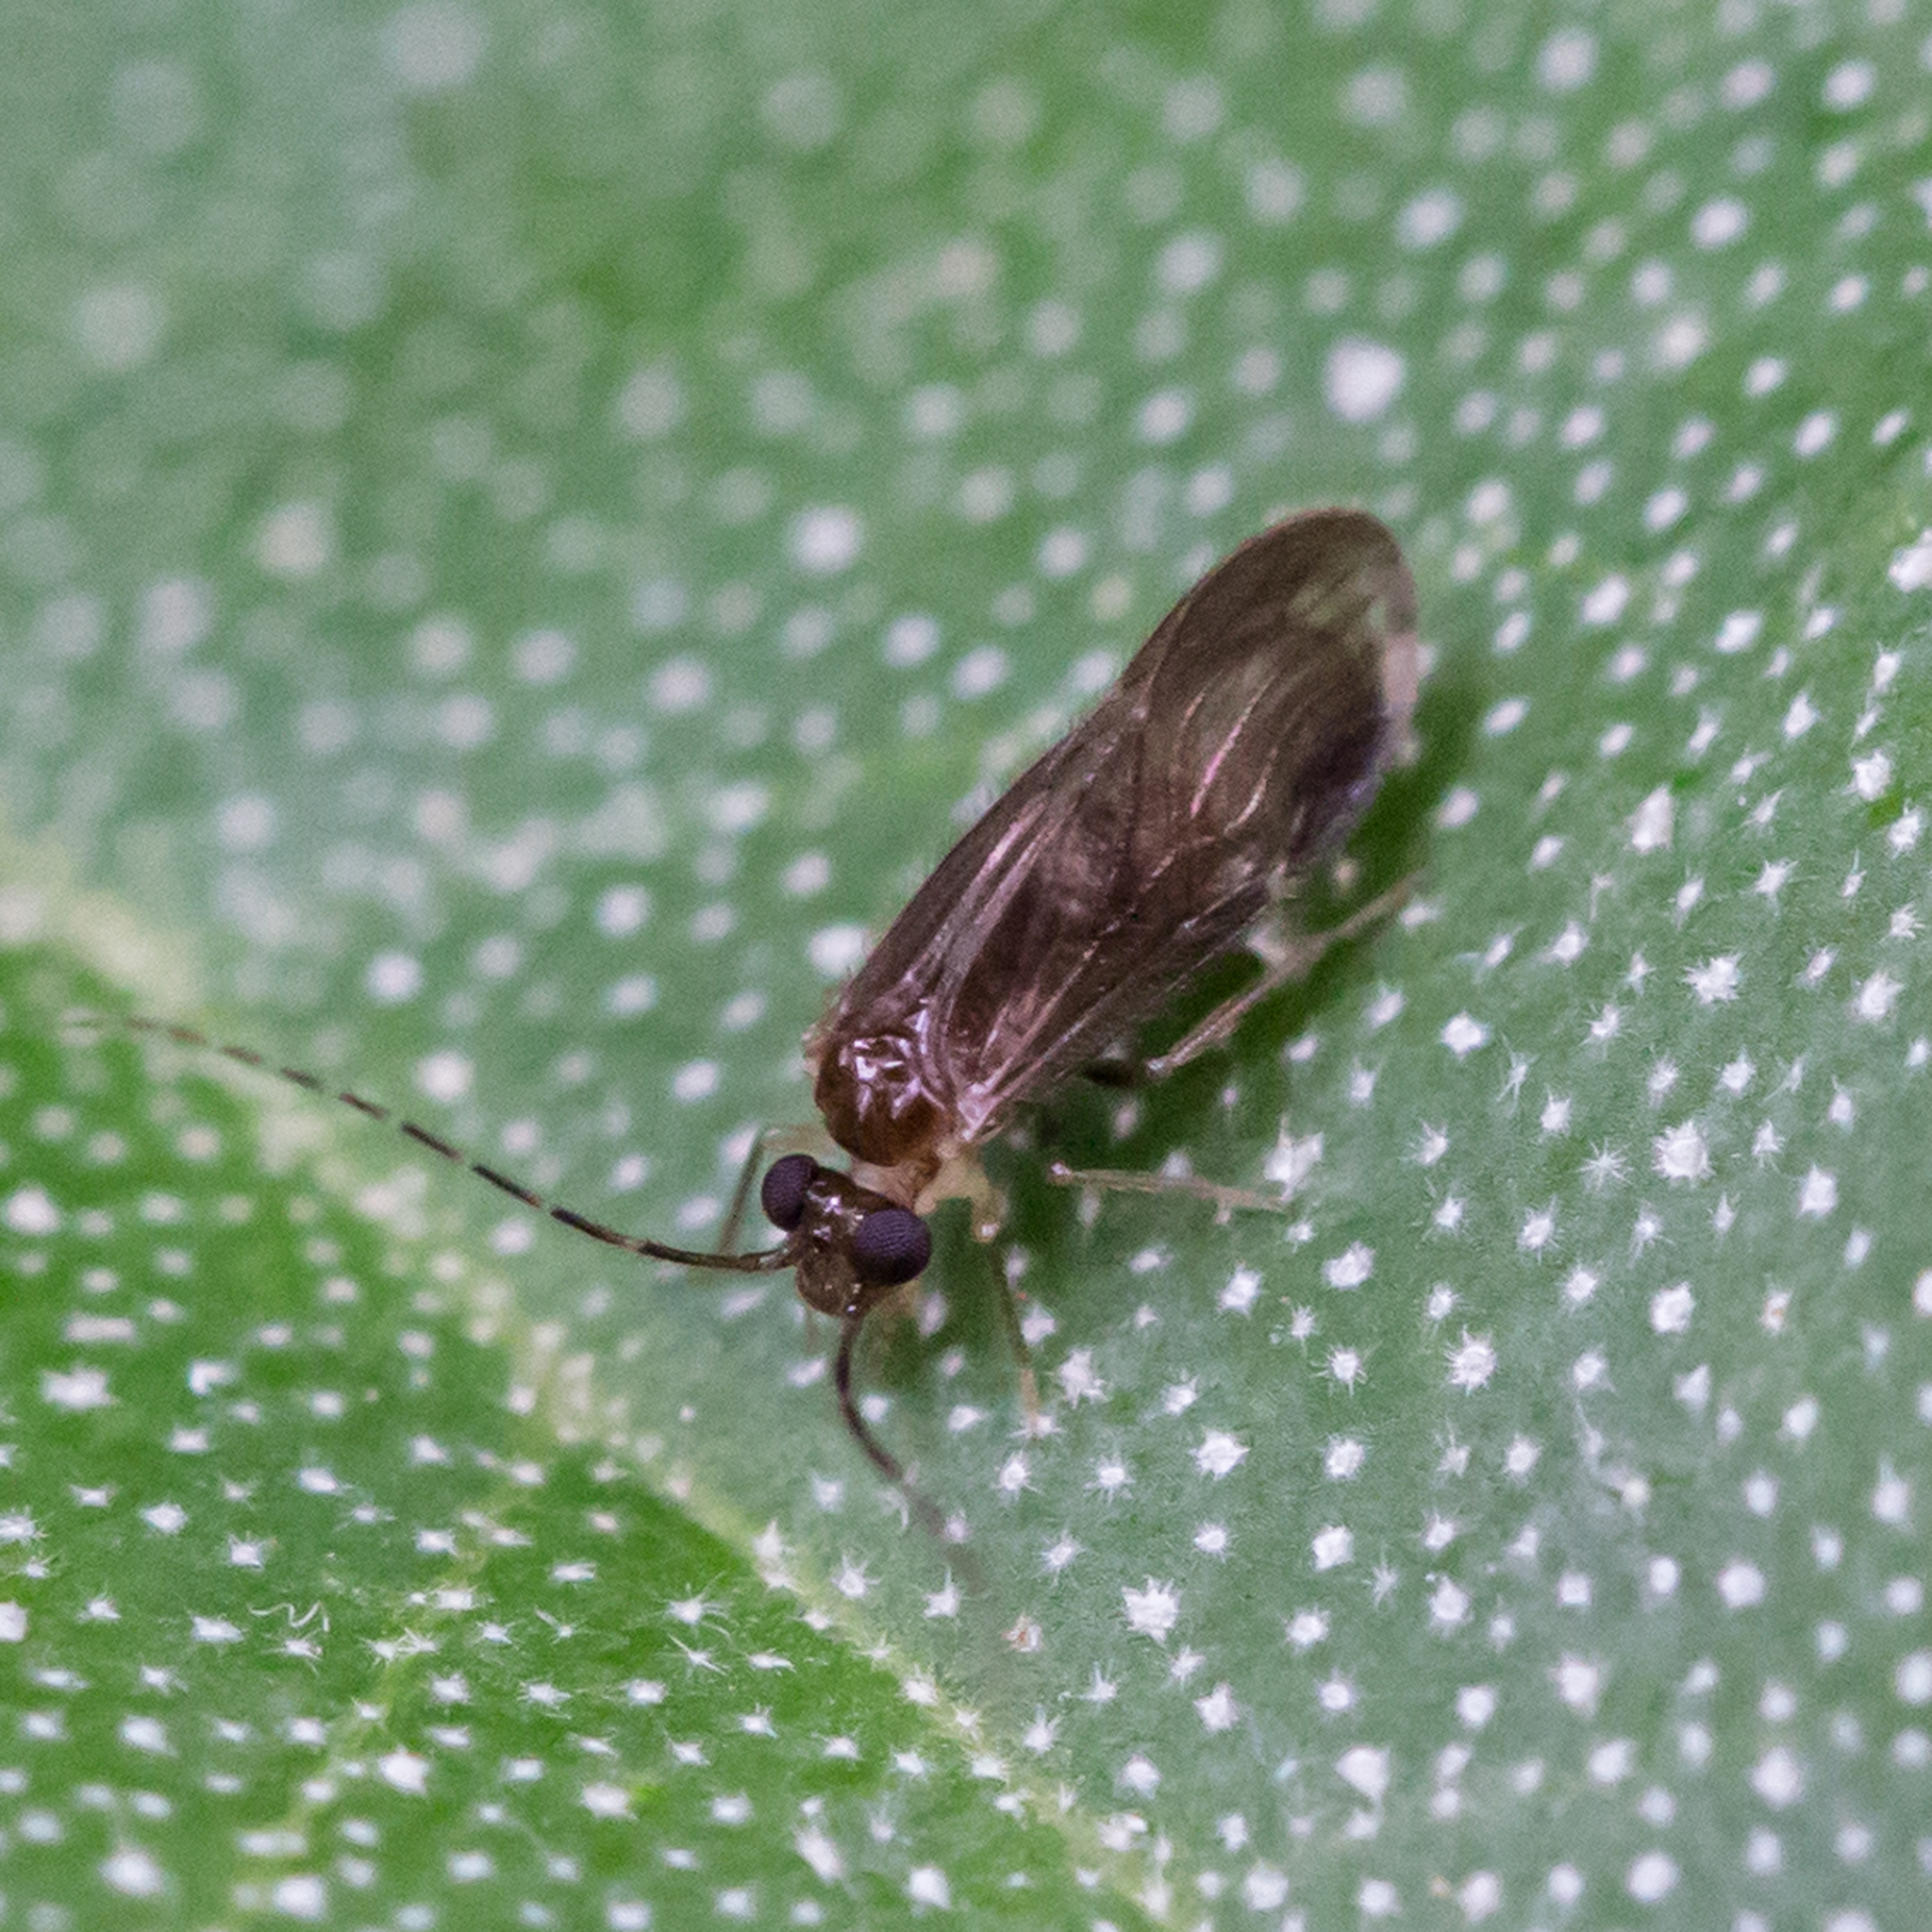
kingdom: Animalia
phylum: Arthropoda
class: Insecta
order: Psocodea
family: Amphipsocidae
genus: Polypsocus
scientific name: Polypsocus corruptus
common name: Corrupt barklouse
